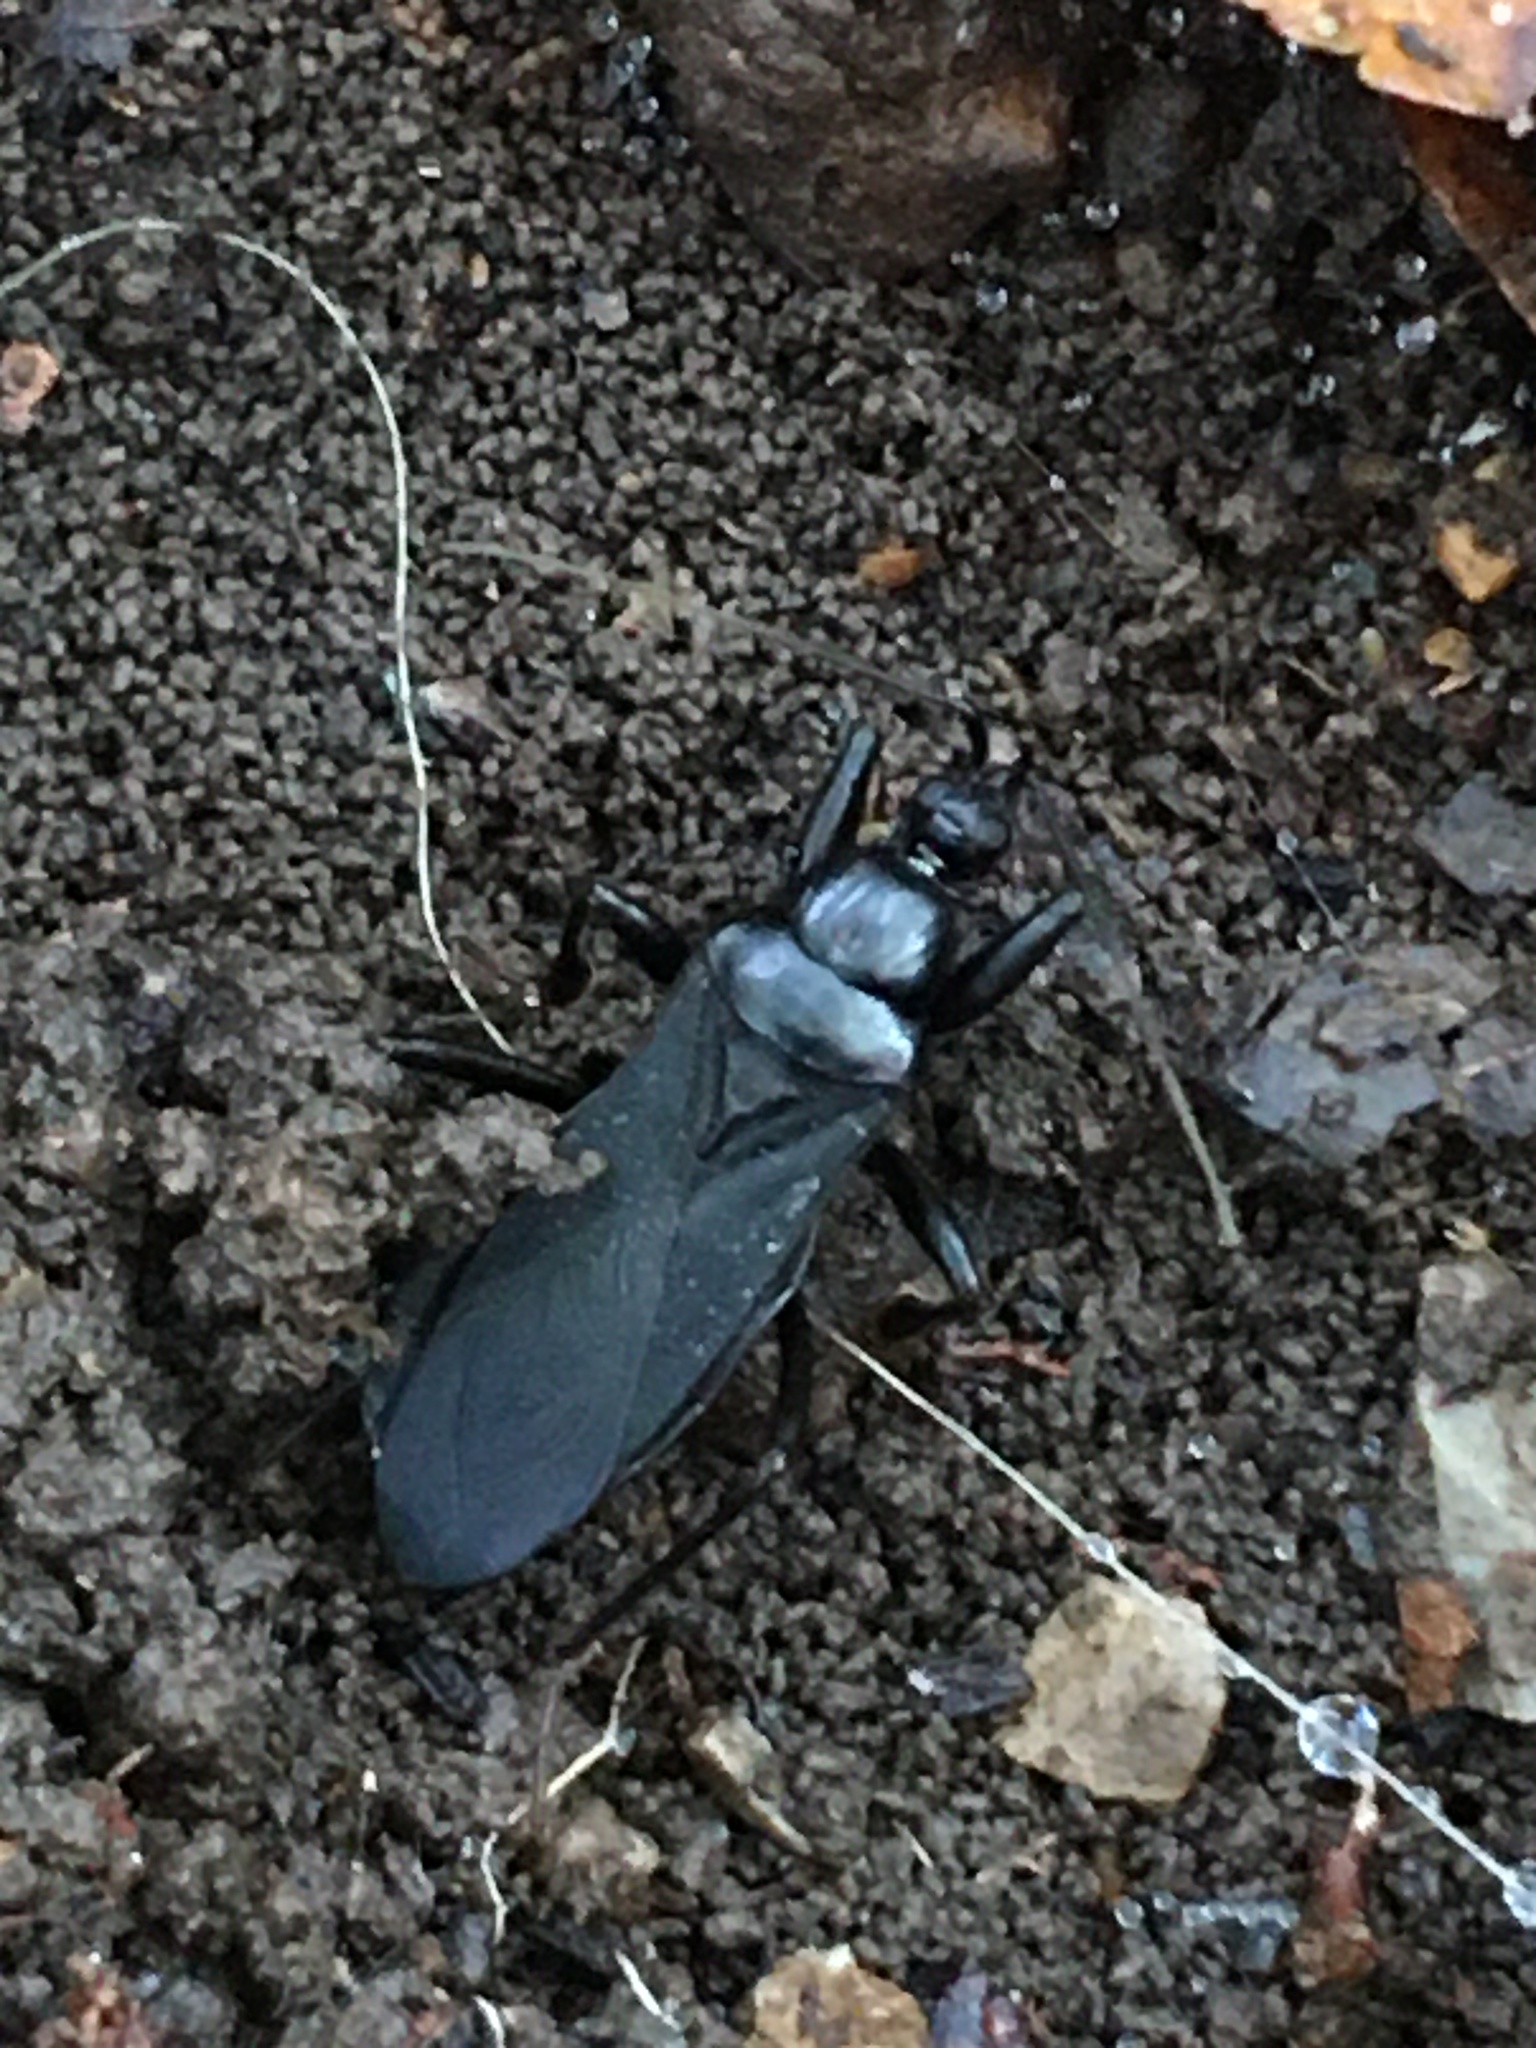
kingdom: Animalia
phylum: Arthropoda
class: Insecta
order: Hemiptera
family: Reduviidae
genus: Melanolestes
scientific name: Melanolestes picipes
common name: Assassin bug
